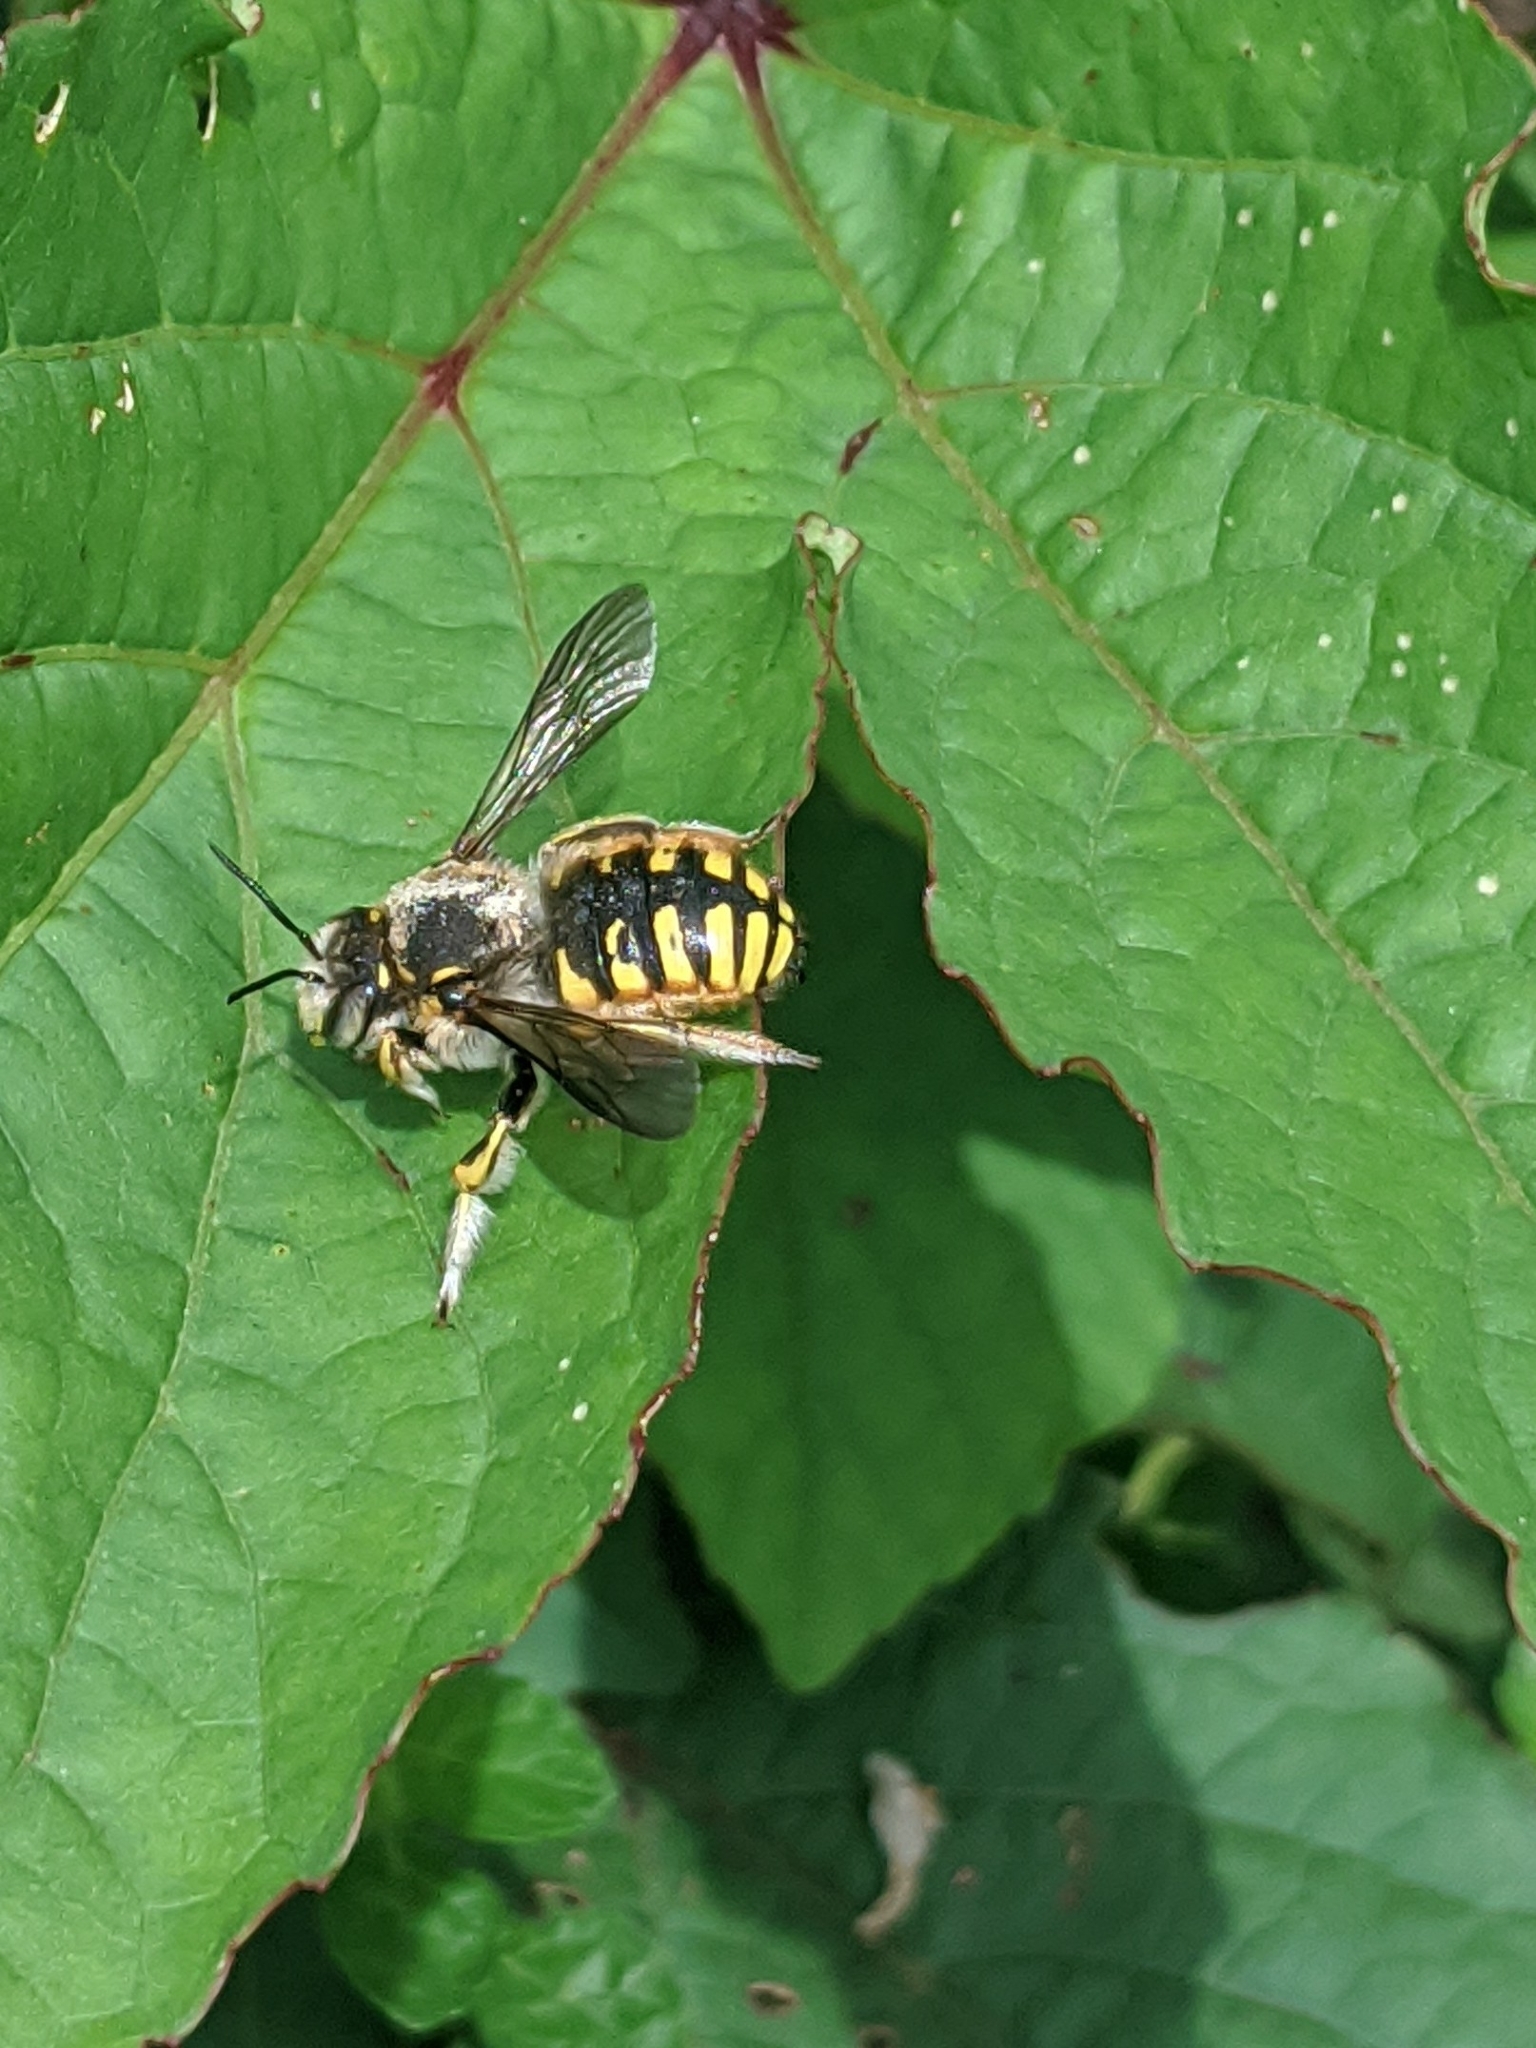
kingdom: Animalia
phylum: Arthropoda
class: Insecta
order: Hymenoptera
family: Megachilidae
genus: Anthidium
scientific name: Anthidium manicatum
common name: Wool carder bee
